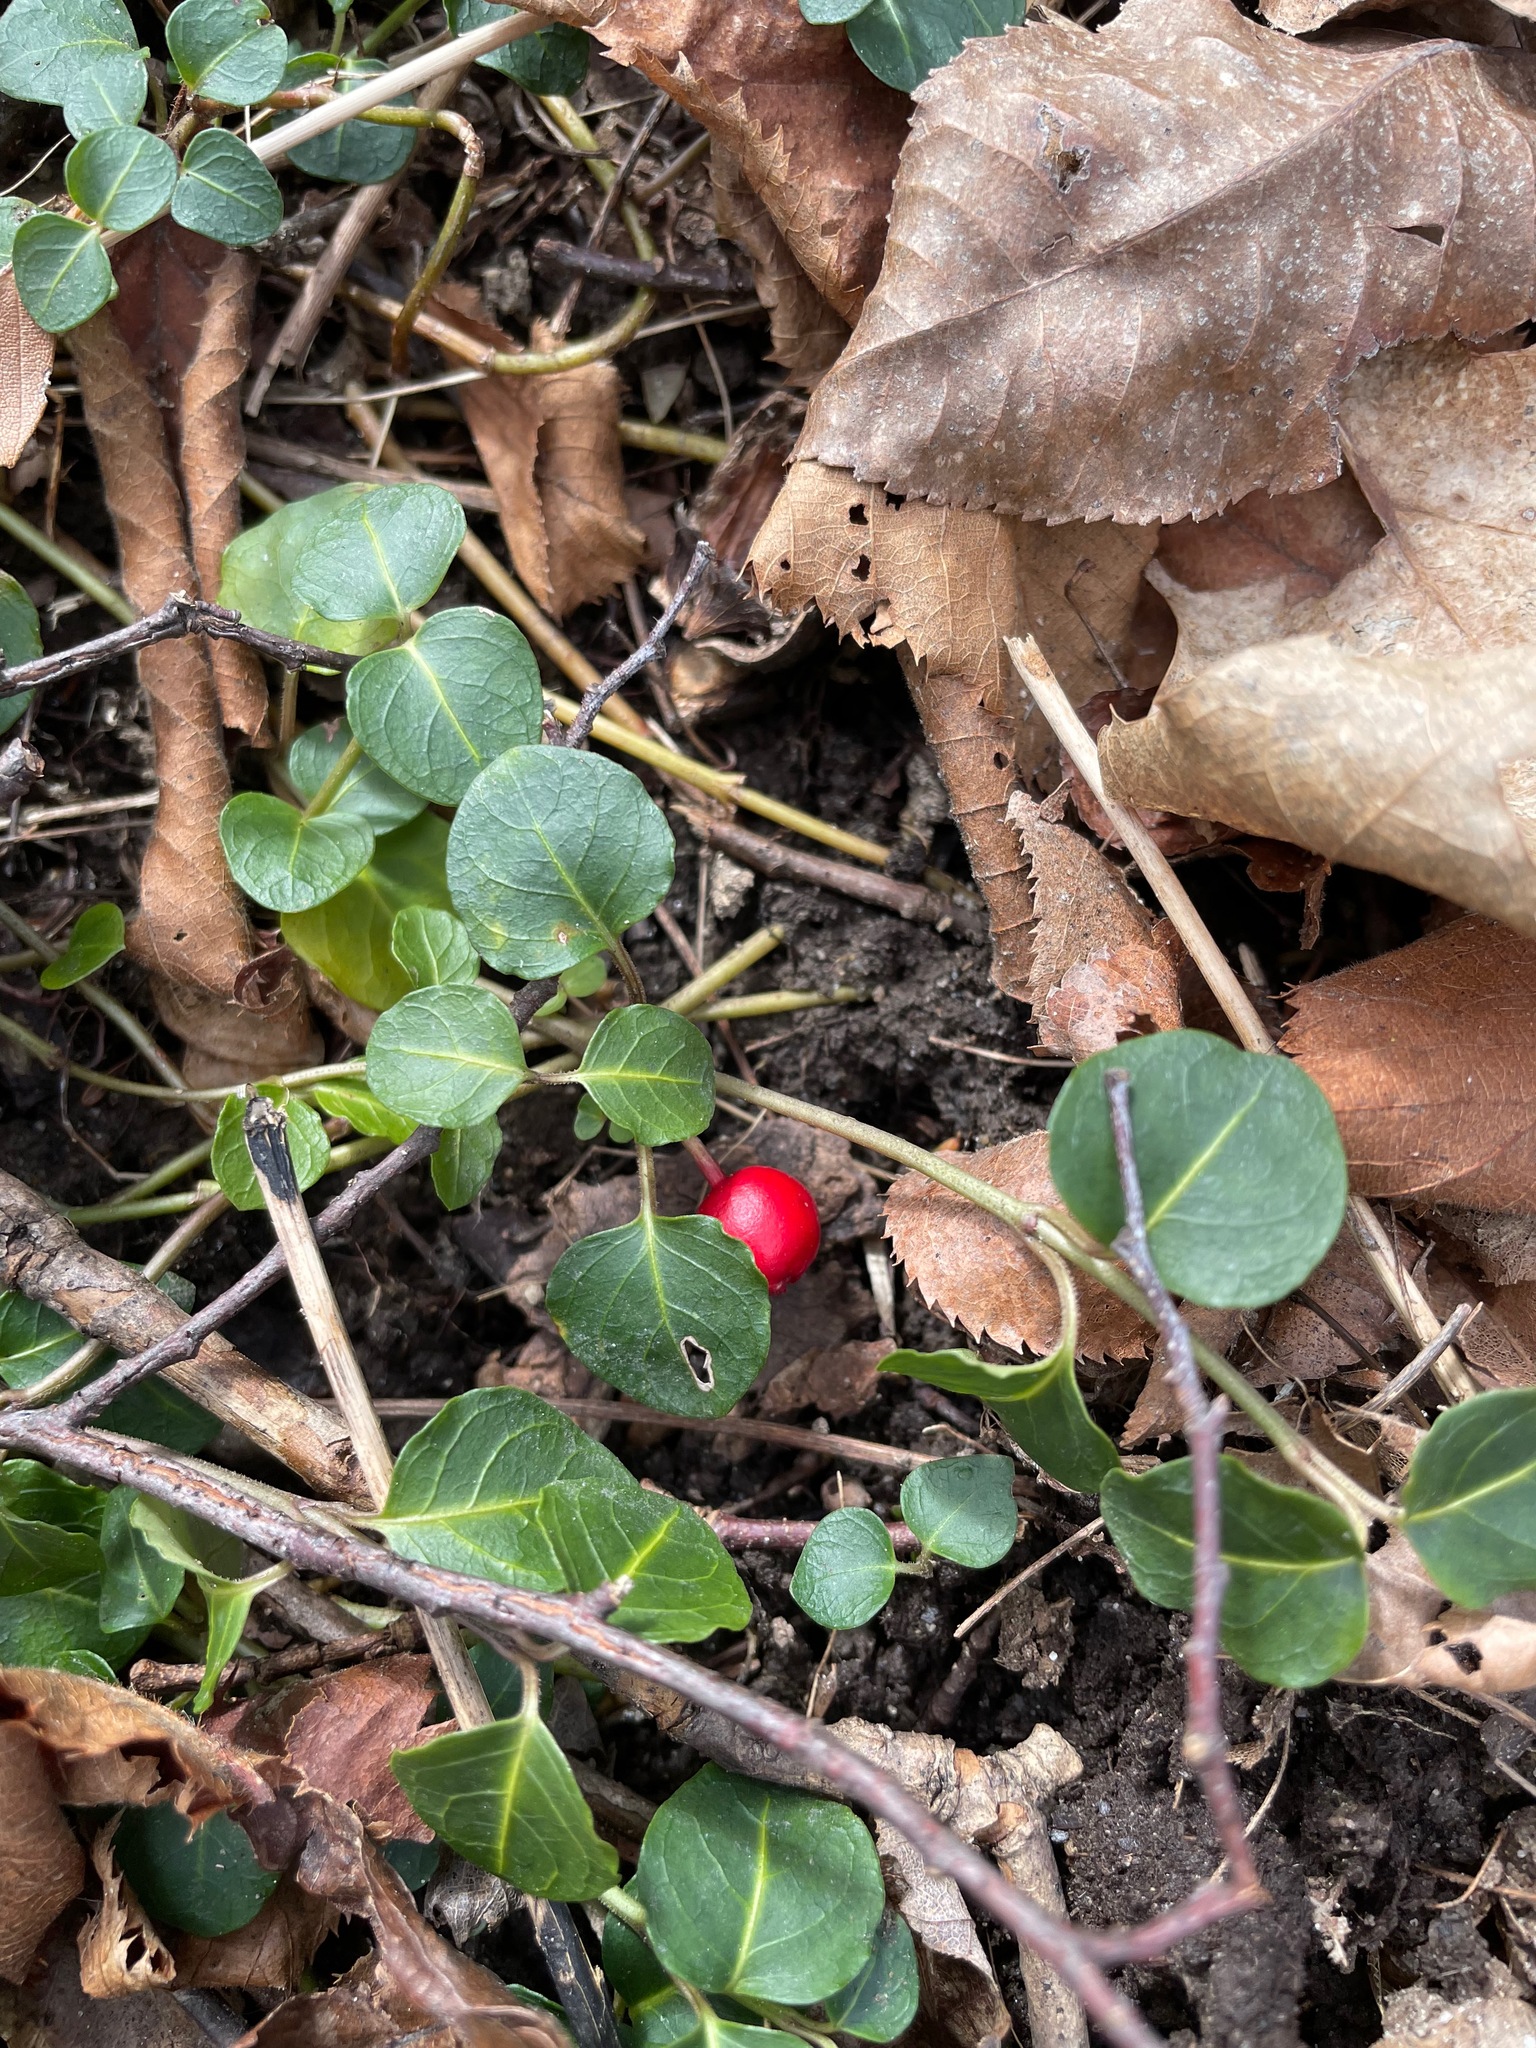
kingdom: Plantae
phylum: Tracheophyta
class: Magnoliopsida
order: Gentianales
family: Rubiaceae
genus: Mitchella
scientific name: Mitchella repens
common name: Partridge-berry
